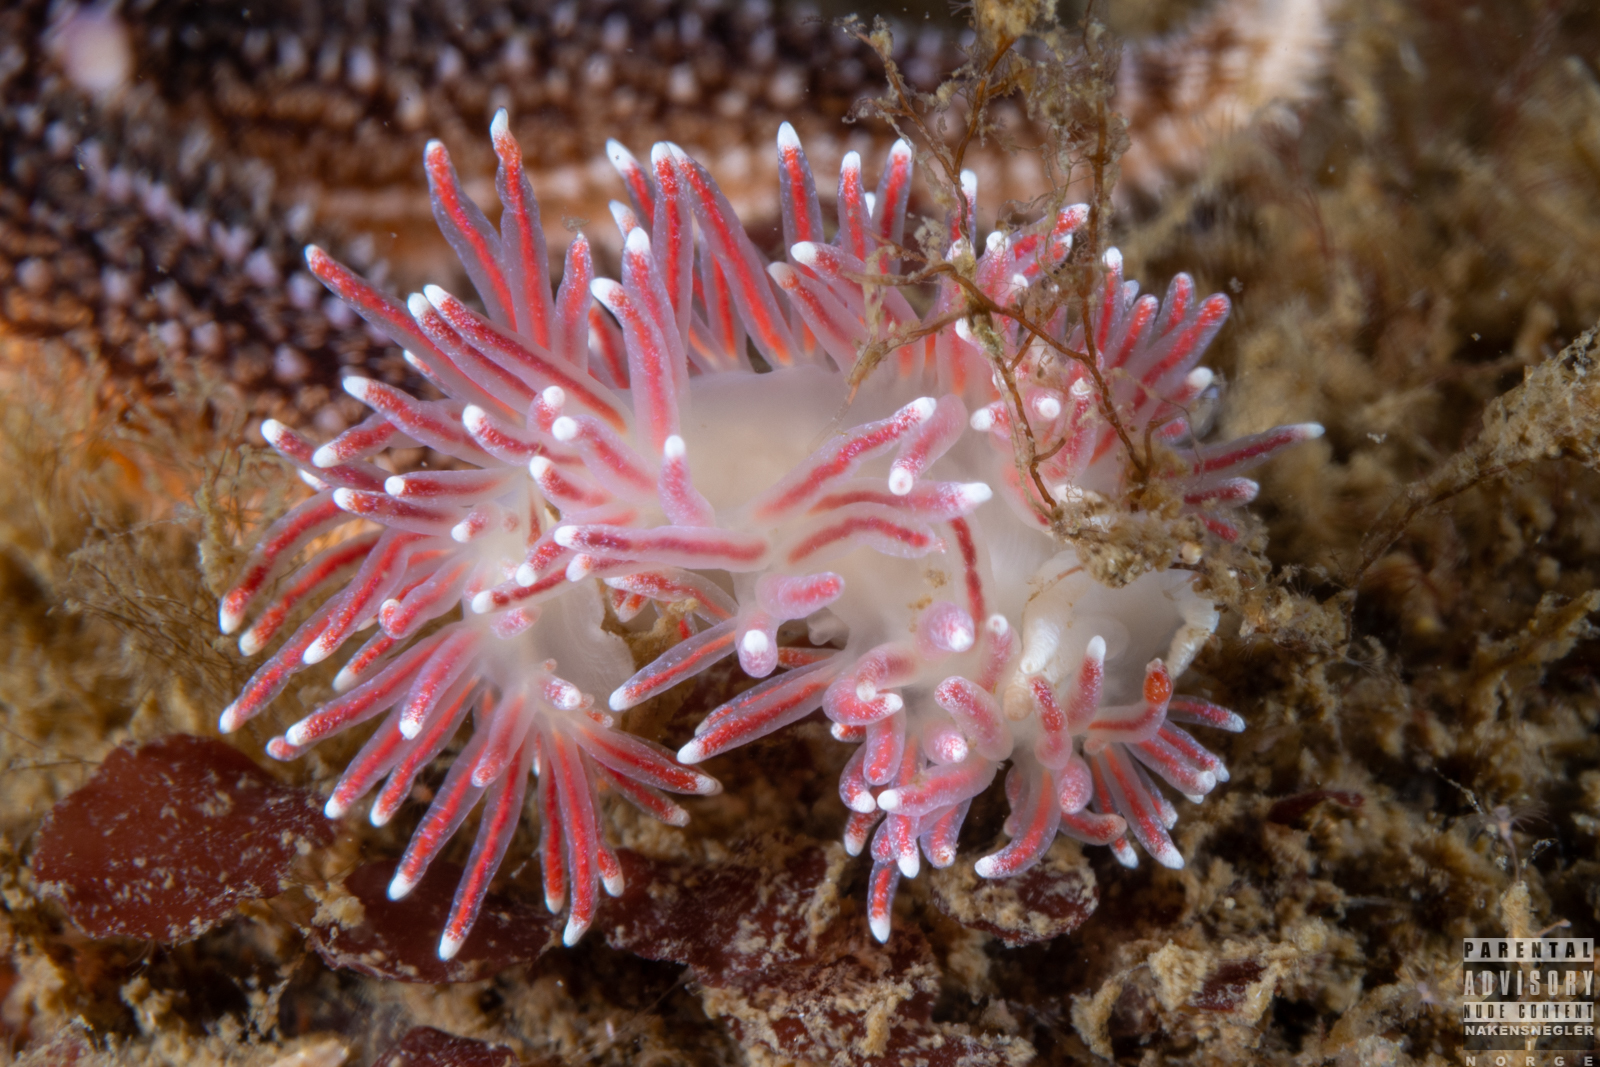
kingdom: Animalia
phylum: Mollusca
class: Gastropoda
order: Nudibranchia
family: Flabellinidae
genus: Carronella
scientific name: Carronella pellucida
